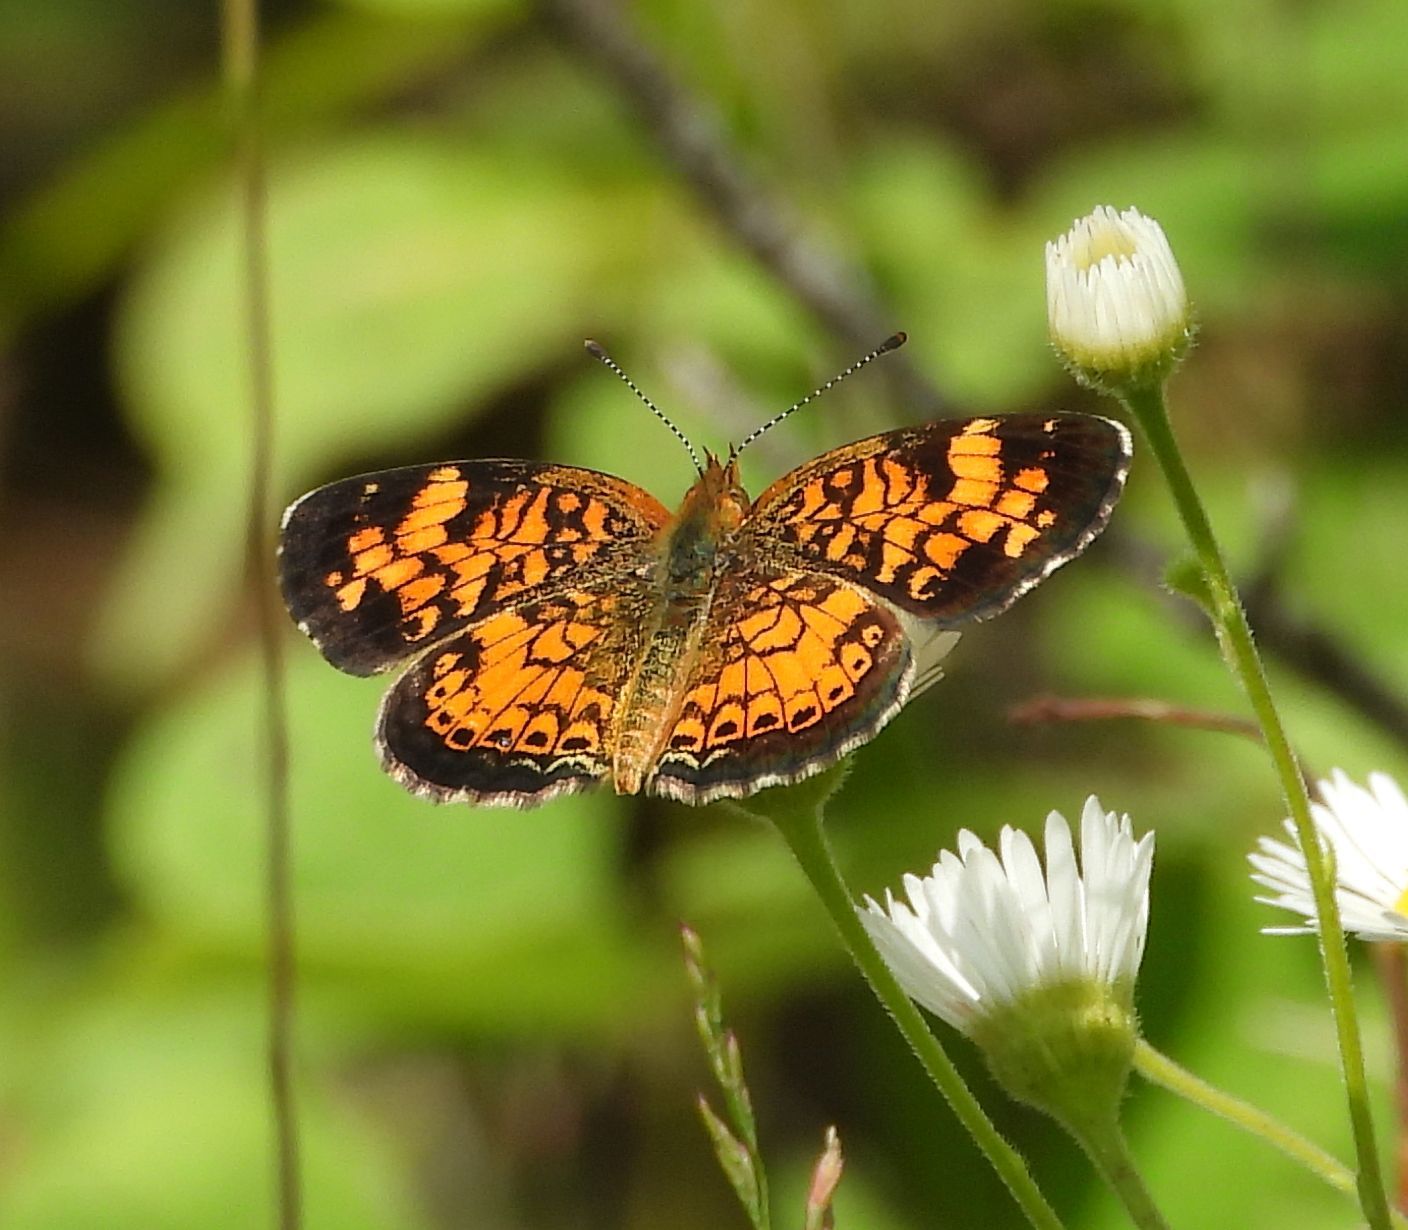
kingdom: Animalia
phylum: Arthropoda
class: Insecta
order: Lepidoptera
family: Nymphalidae
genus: Phyciodes
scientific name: Phyciodes tharos
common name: Pearl crescent
